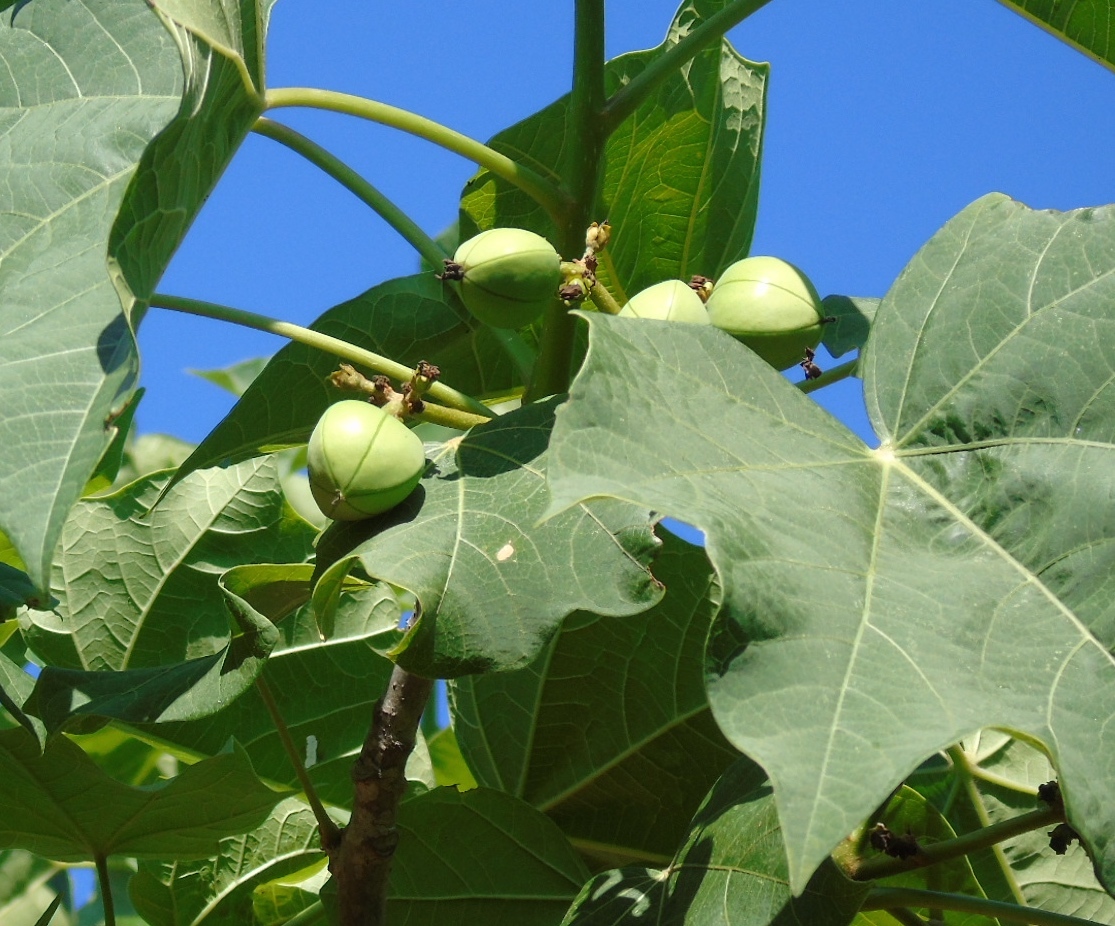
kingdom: Plantae
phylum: Tracheophyta
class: Magnoliopsida
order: Malpighiales
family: Euphorbiaceae
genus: Jatropha
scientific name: Jatropha curcas
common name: Barbados nut
